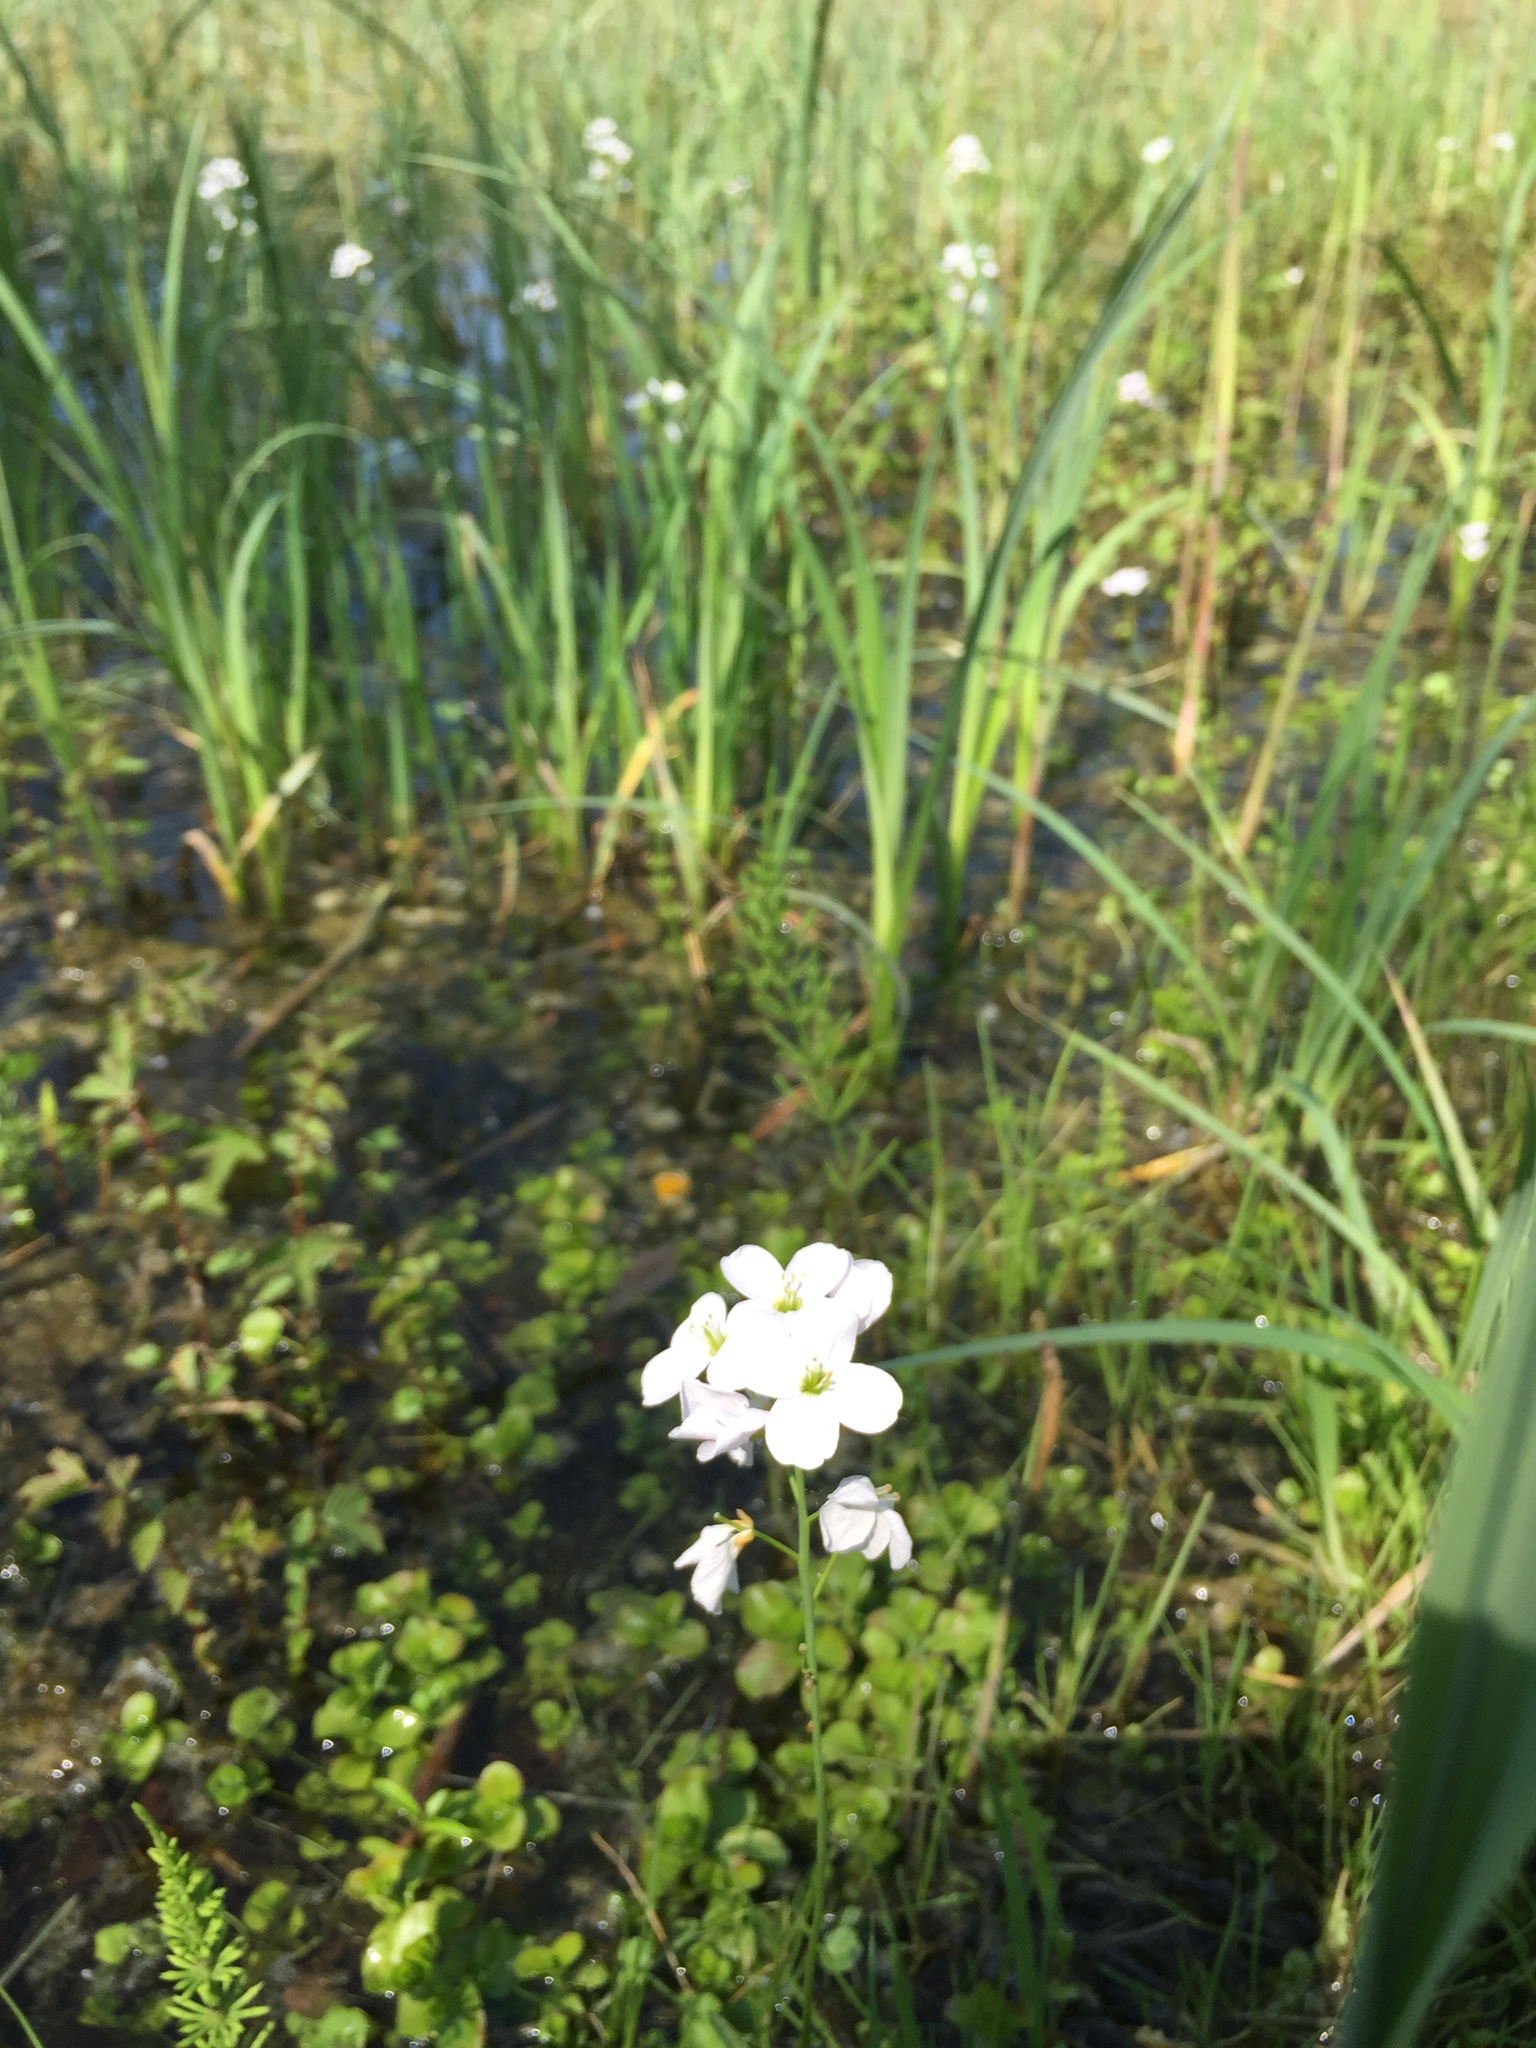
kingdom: Plantae
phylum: Tracheophyta
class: Magnoliopsida
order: Brassicales
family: Brassicaceae
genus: Cardamine
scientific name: Cardamine pratensis
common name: Cuckoo flower
